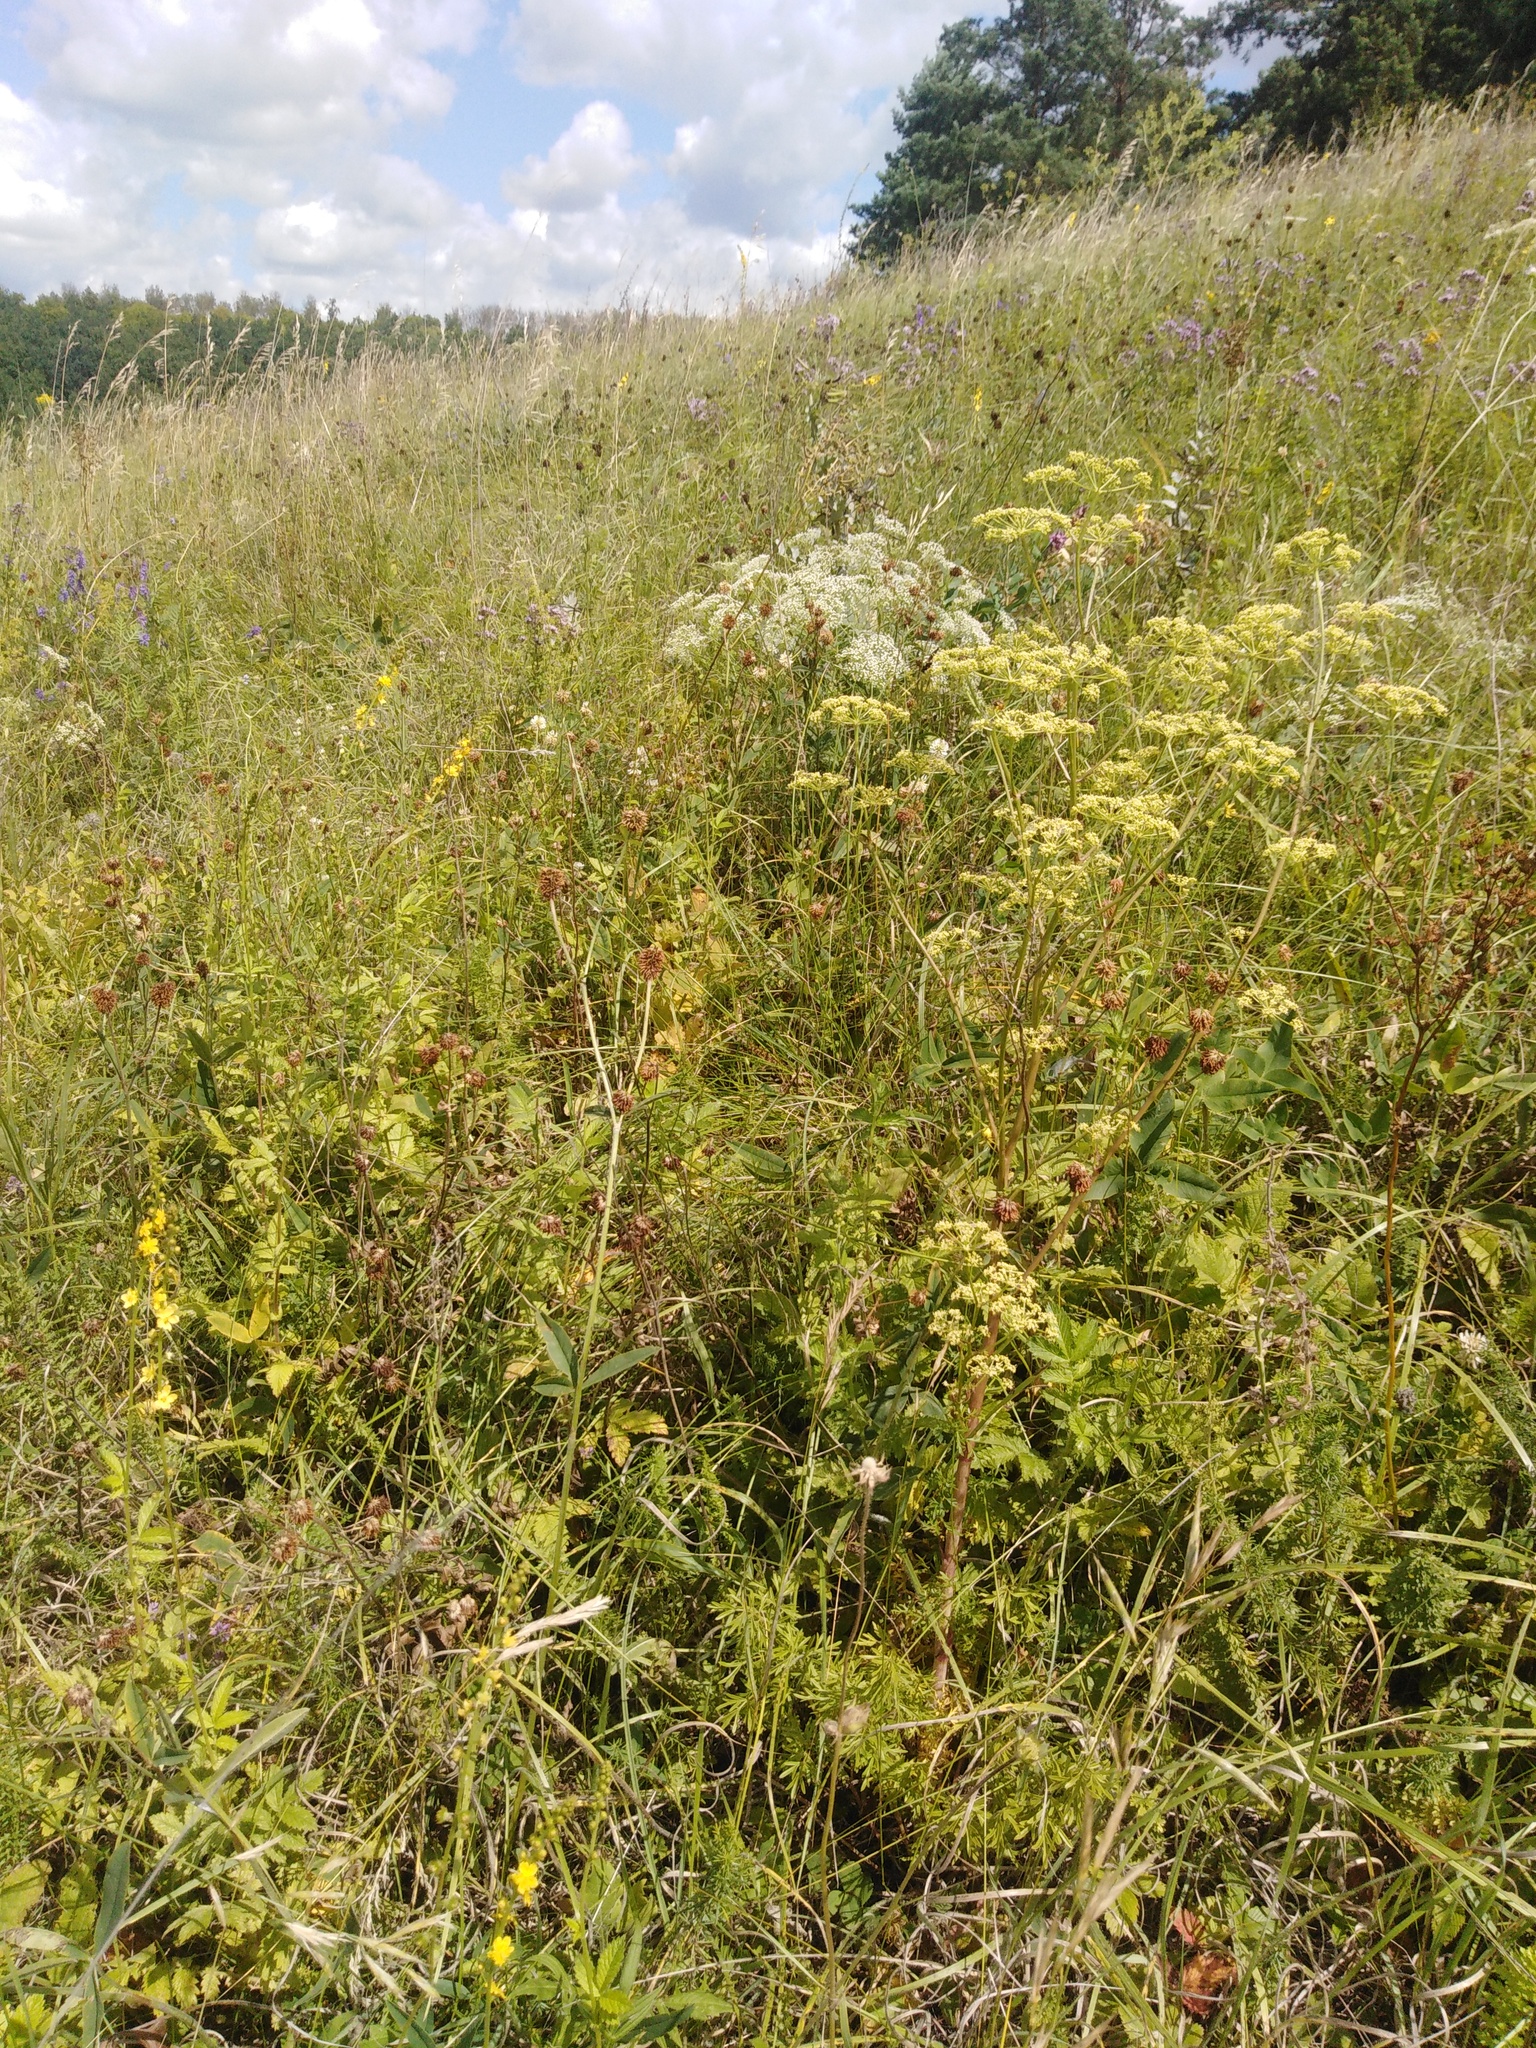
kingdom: Plantae
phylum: Tracheophyta
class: Magnoliopsida
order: Apiales
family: Apiaceae
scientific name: Apiaceae
